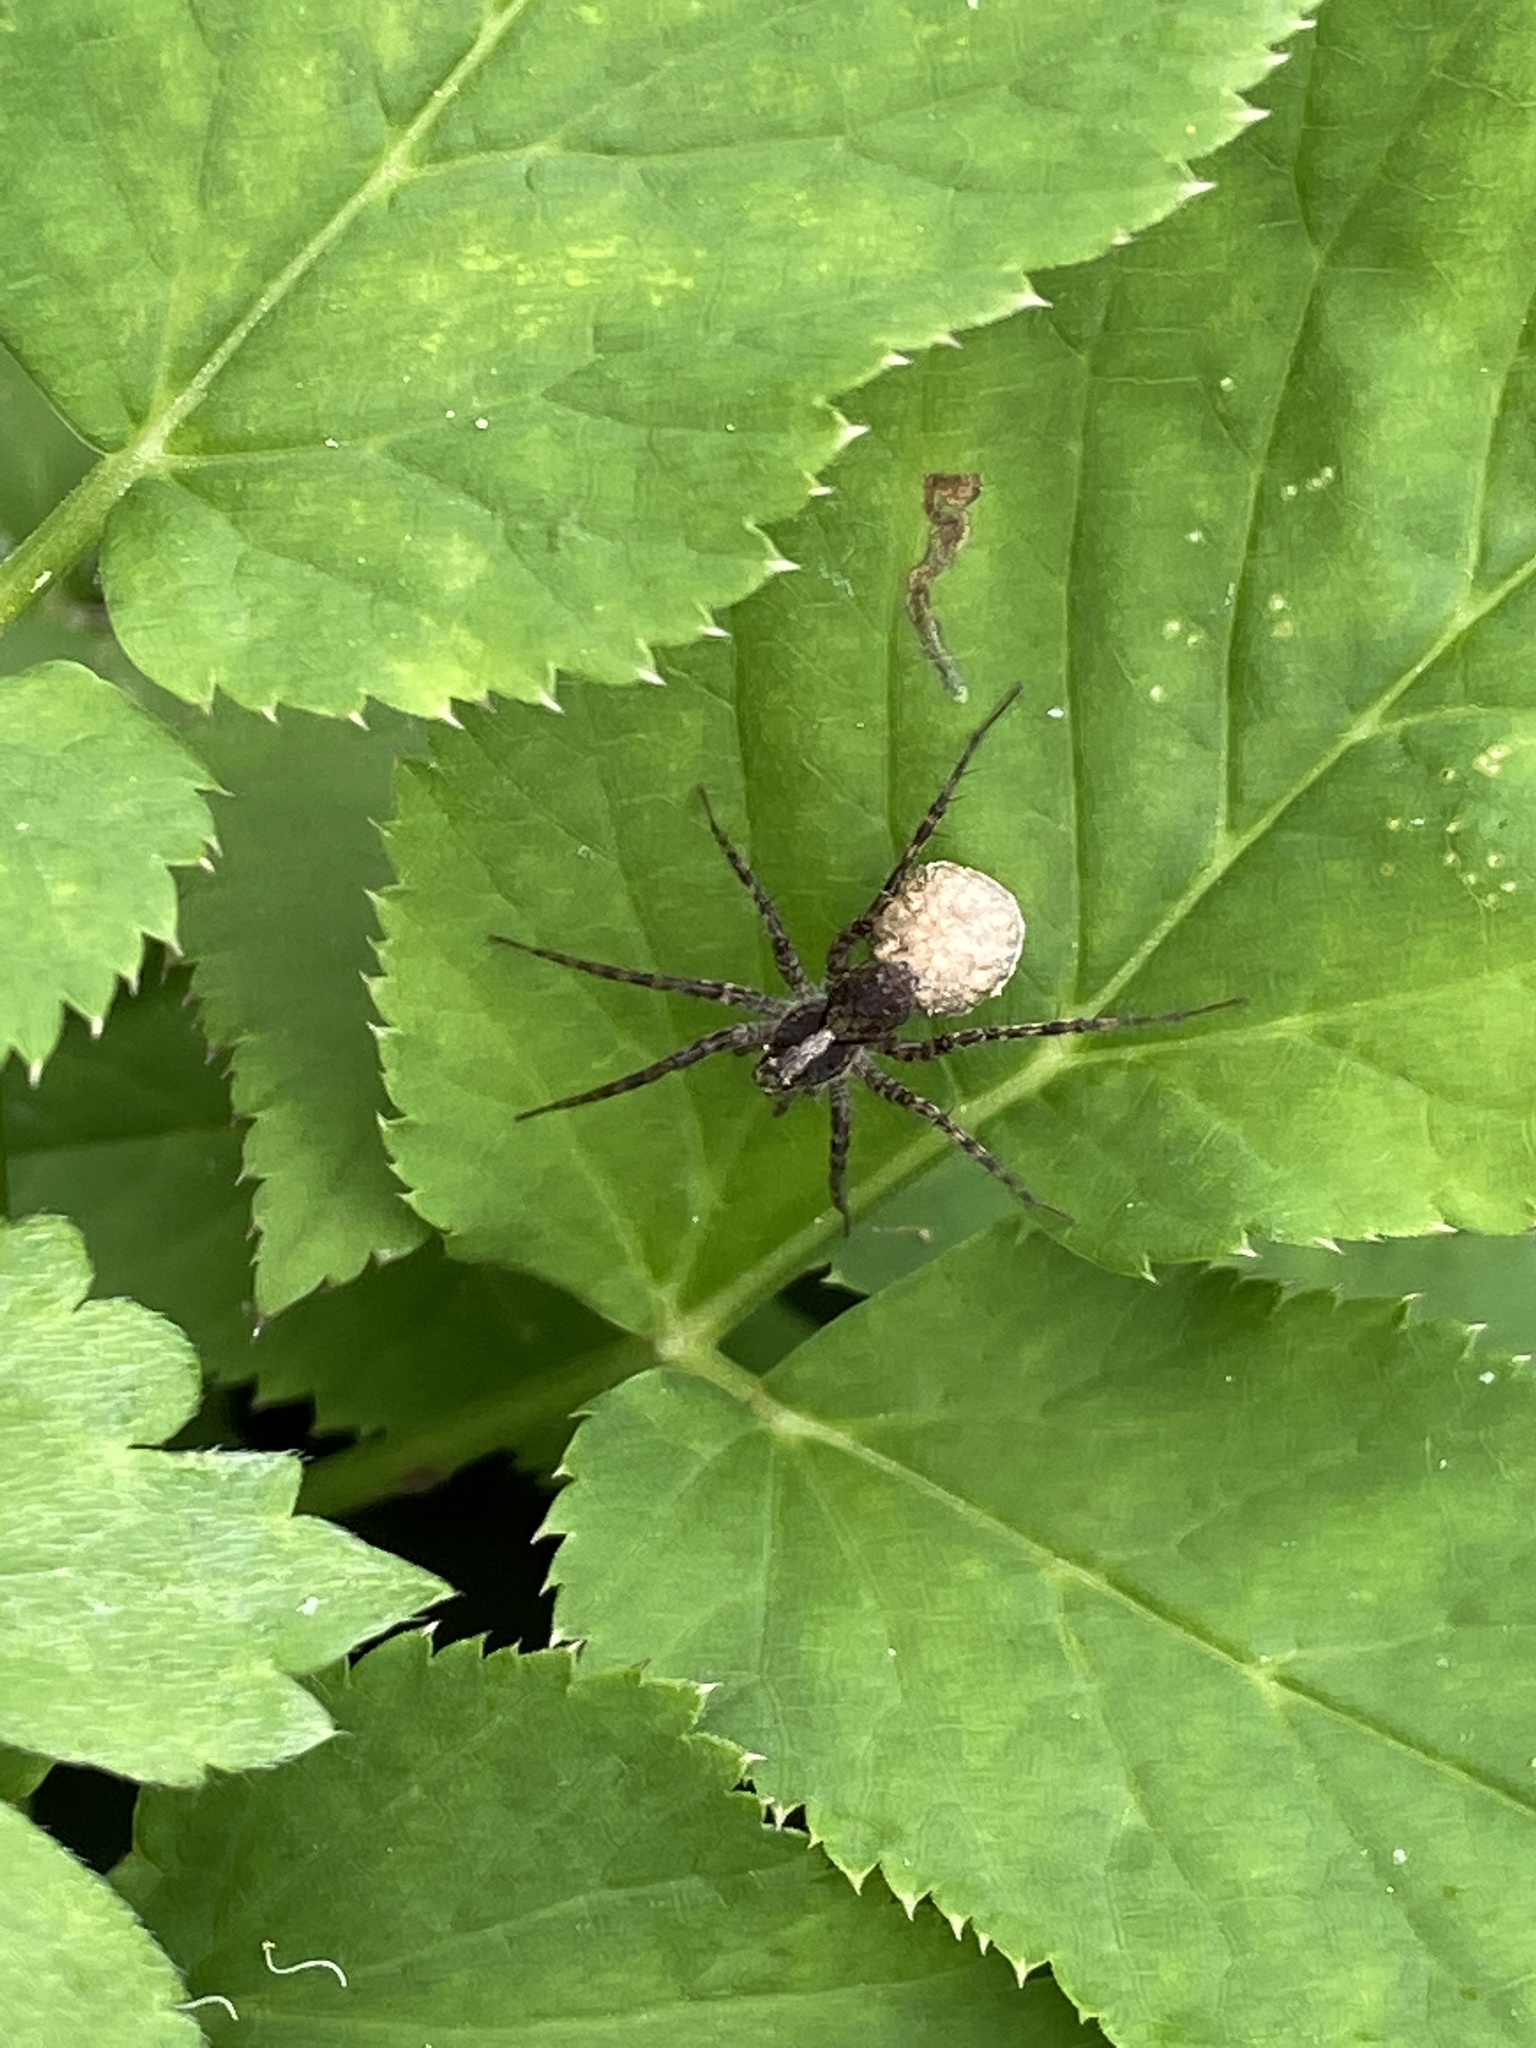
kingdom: Animalia
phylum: Arthropoda
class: Arachnida
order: Araneae
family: Lycosidae
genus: Pardosa
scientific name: Pardosa
